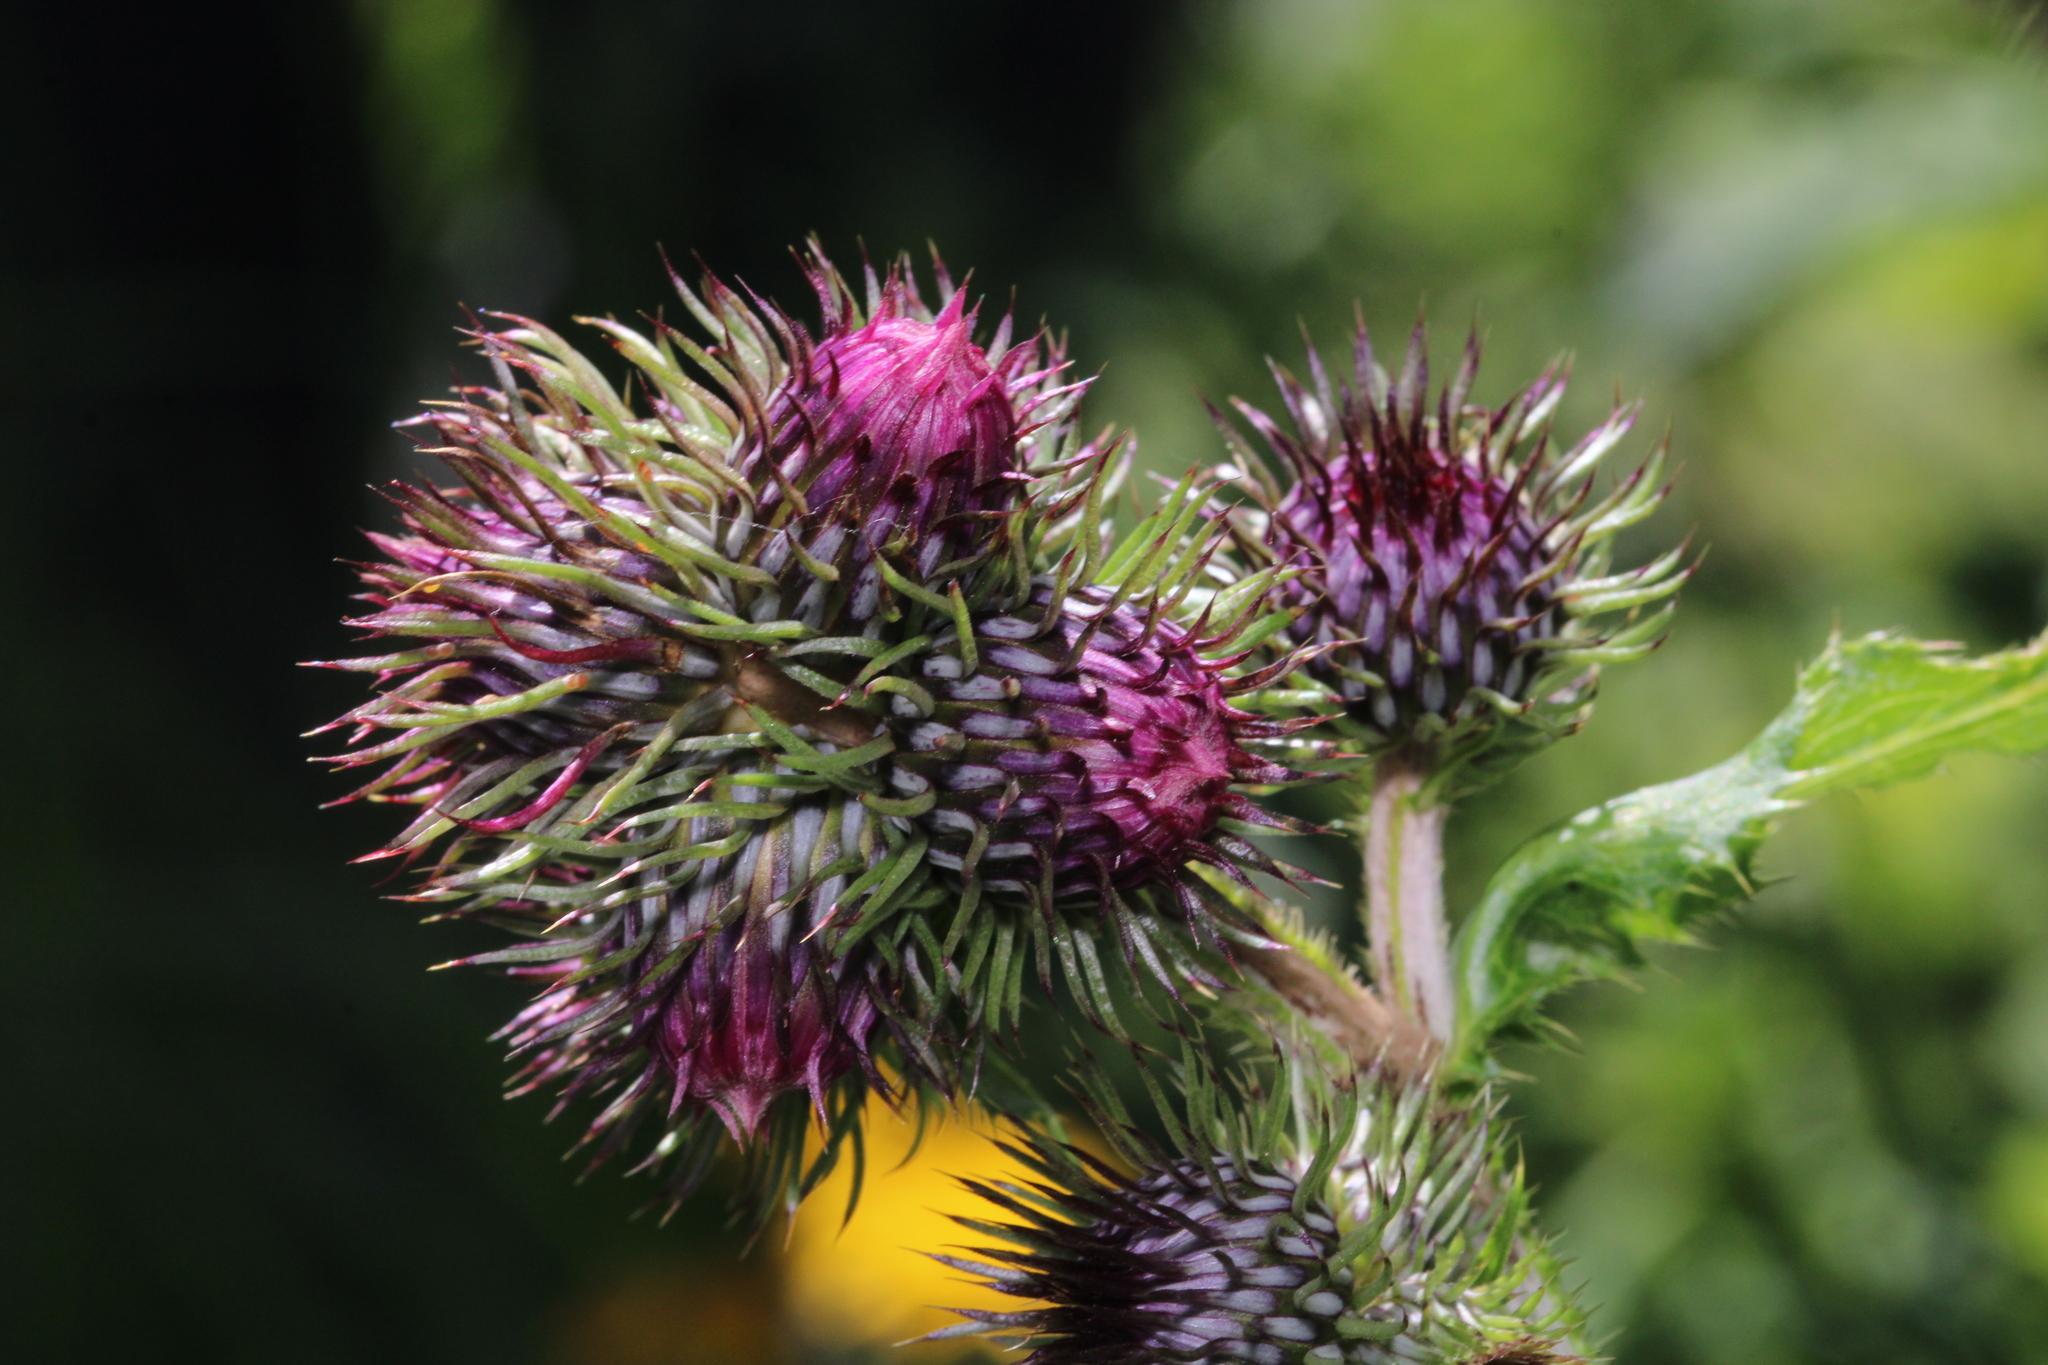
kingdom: Plantae
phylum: Tracheophyta
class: Magnoliopsida
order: Asterales
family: Asteraceae
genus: Carduus
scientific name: Carduus personata
